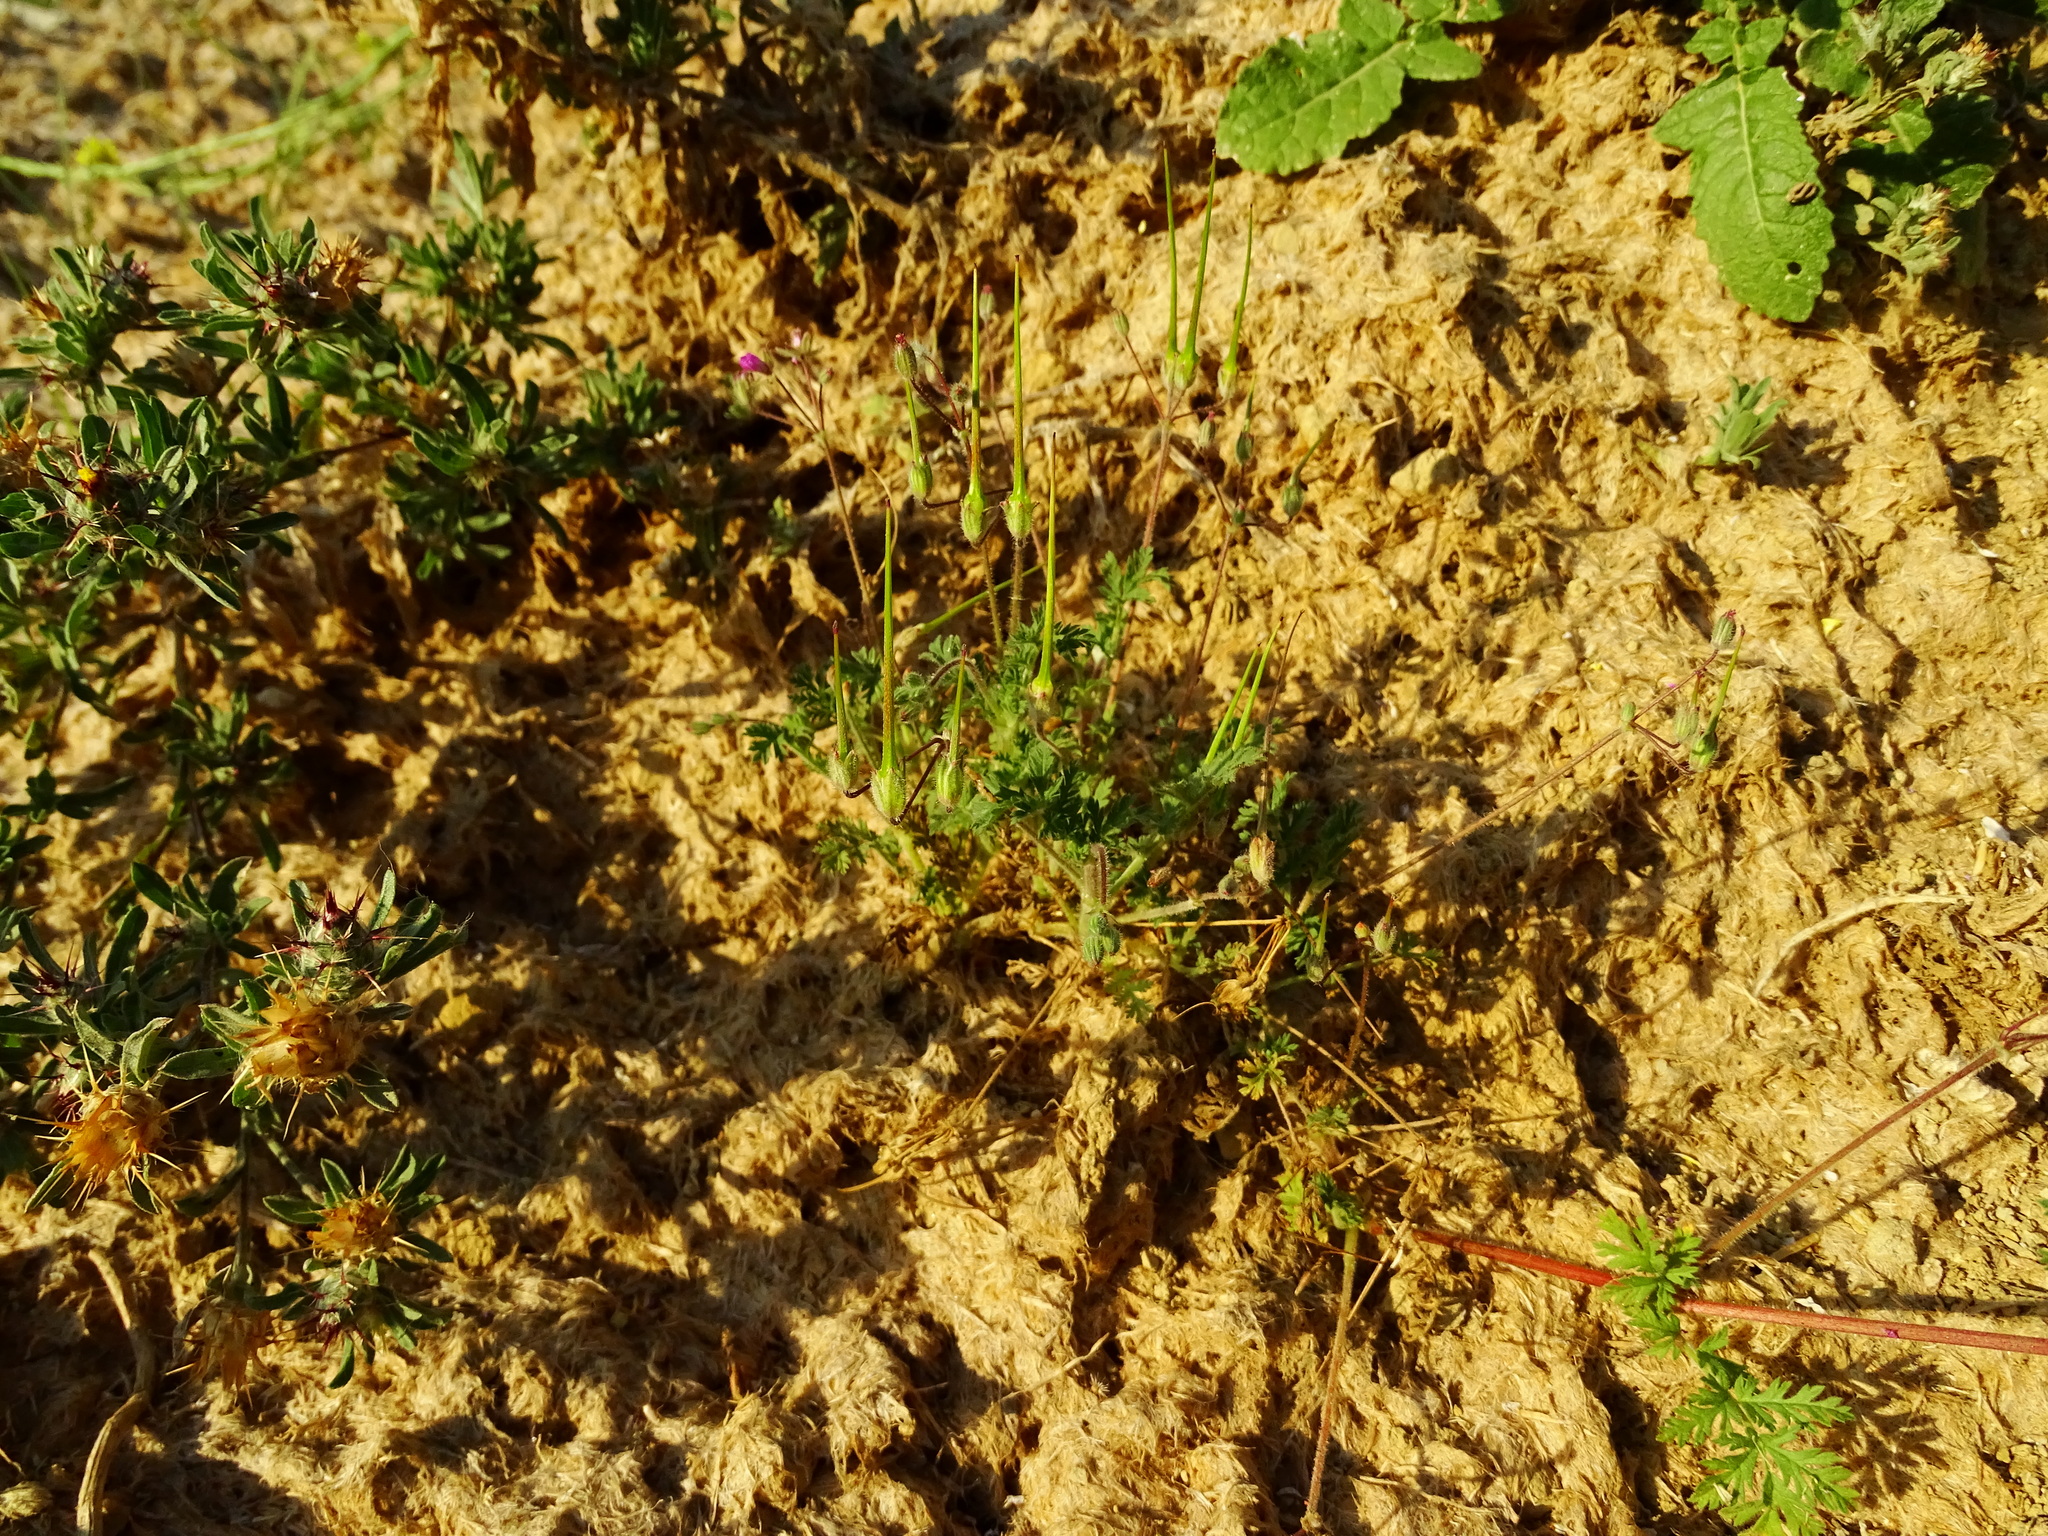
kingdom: Plantae
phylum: Tracheophyta
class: Magnoliopsida
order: Geraniales
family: Geraniaceae
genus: Erodium
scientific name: Erodium cicutarium
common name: Common stork's-bill
